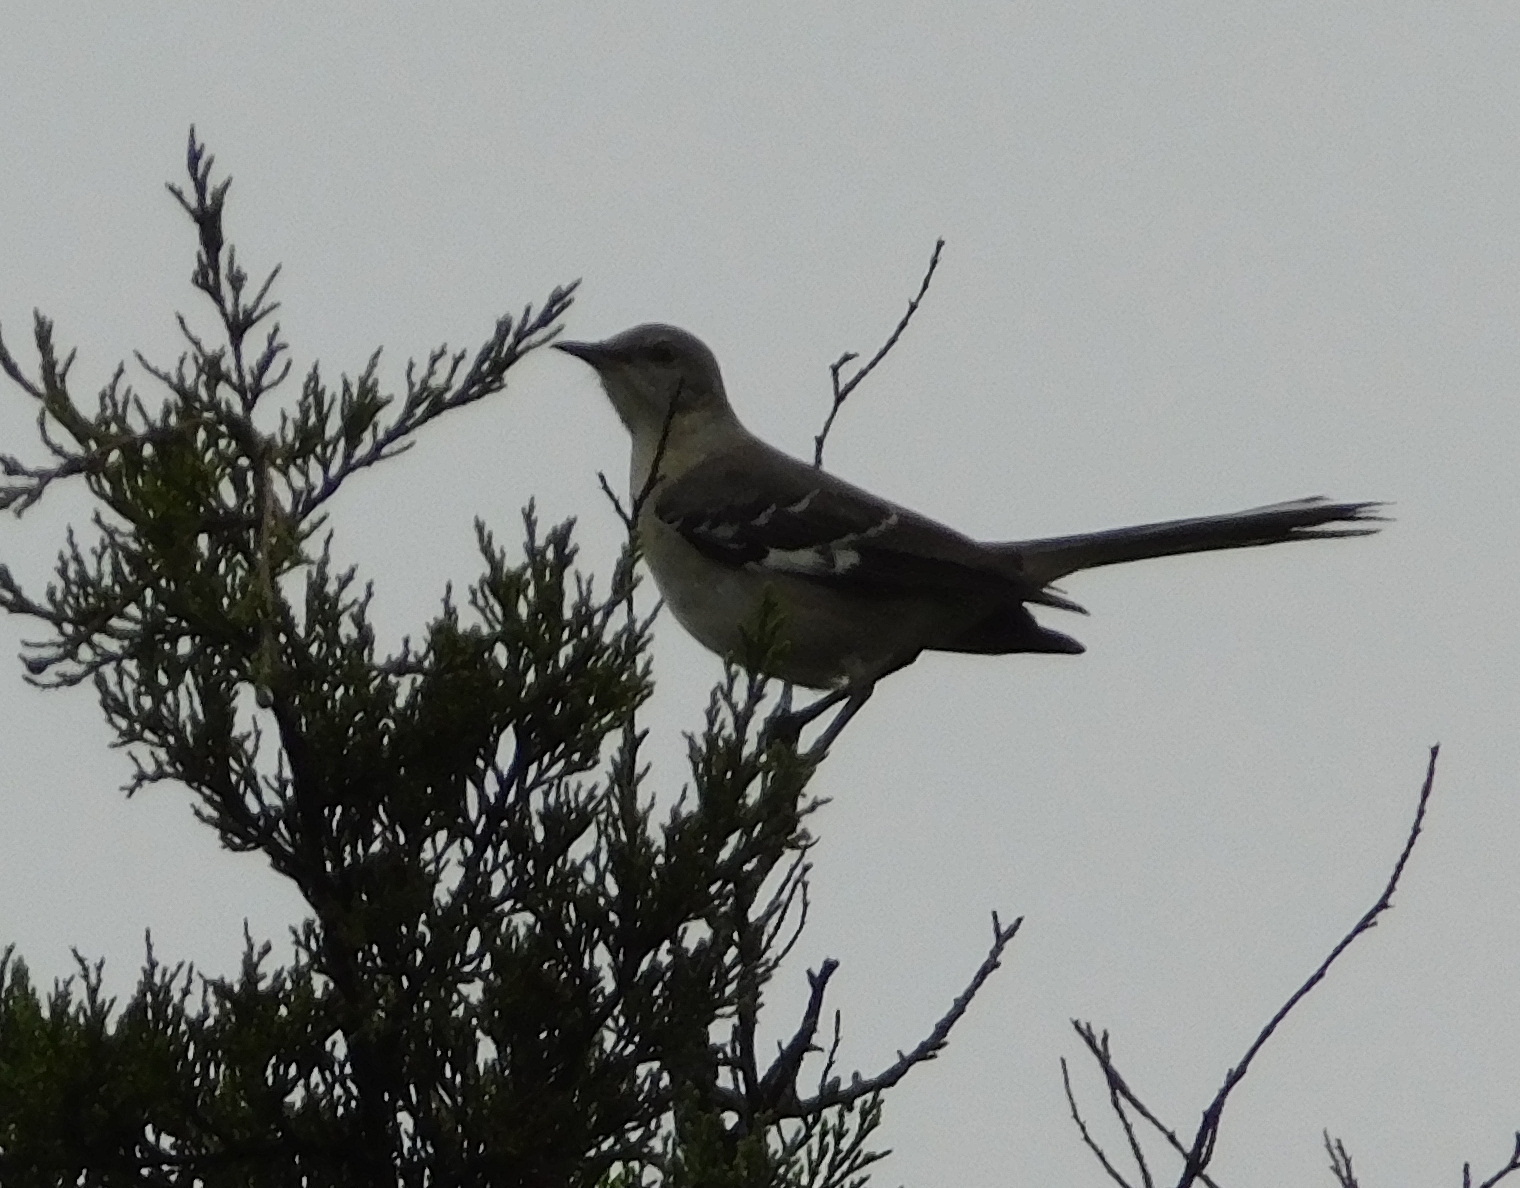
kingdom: Animalia
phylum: Chordata
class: Aves
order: Passeriformes
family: Mimidae
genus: Mimus
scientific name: Mimus polyglottos
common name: Northern mockingbird
